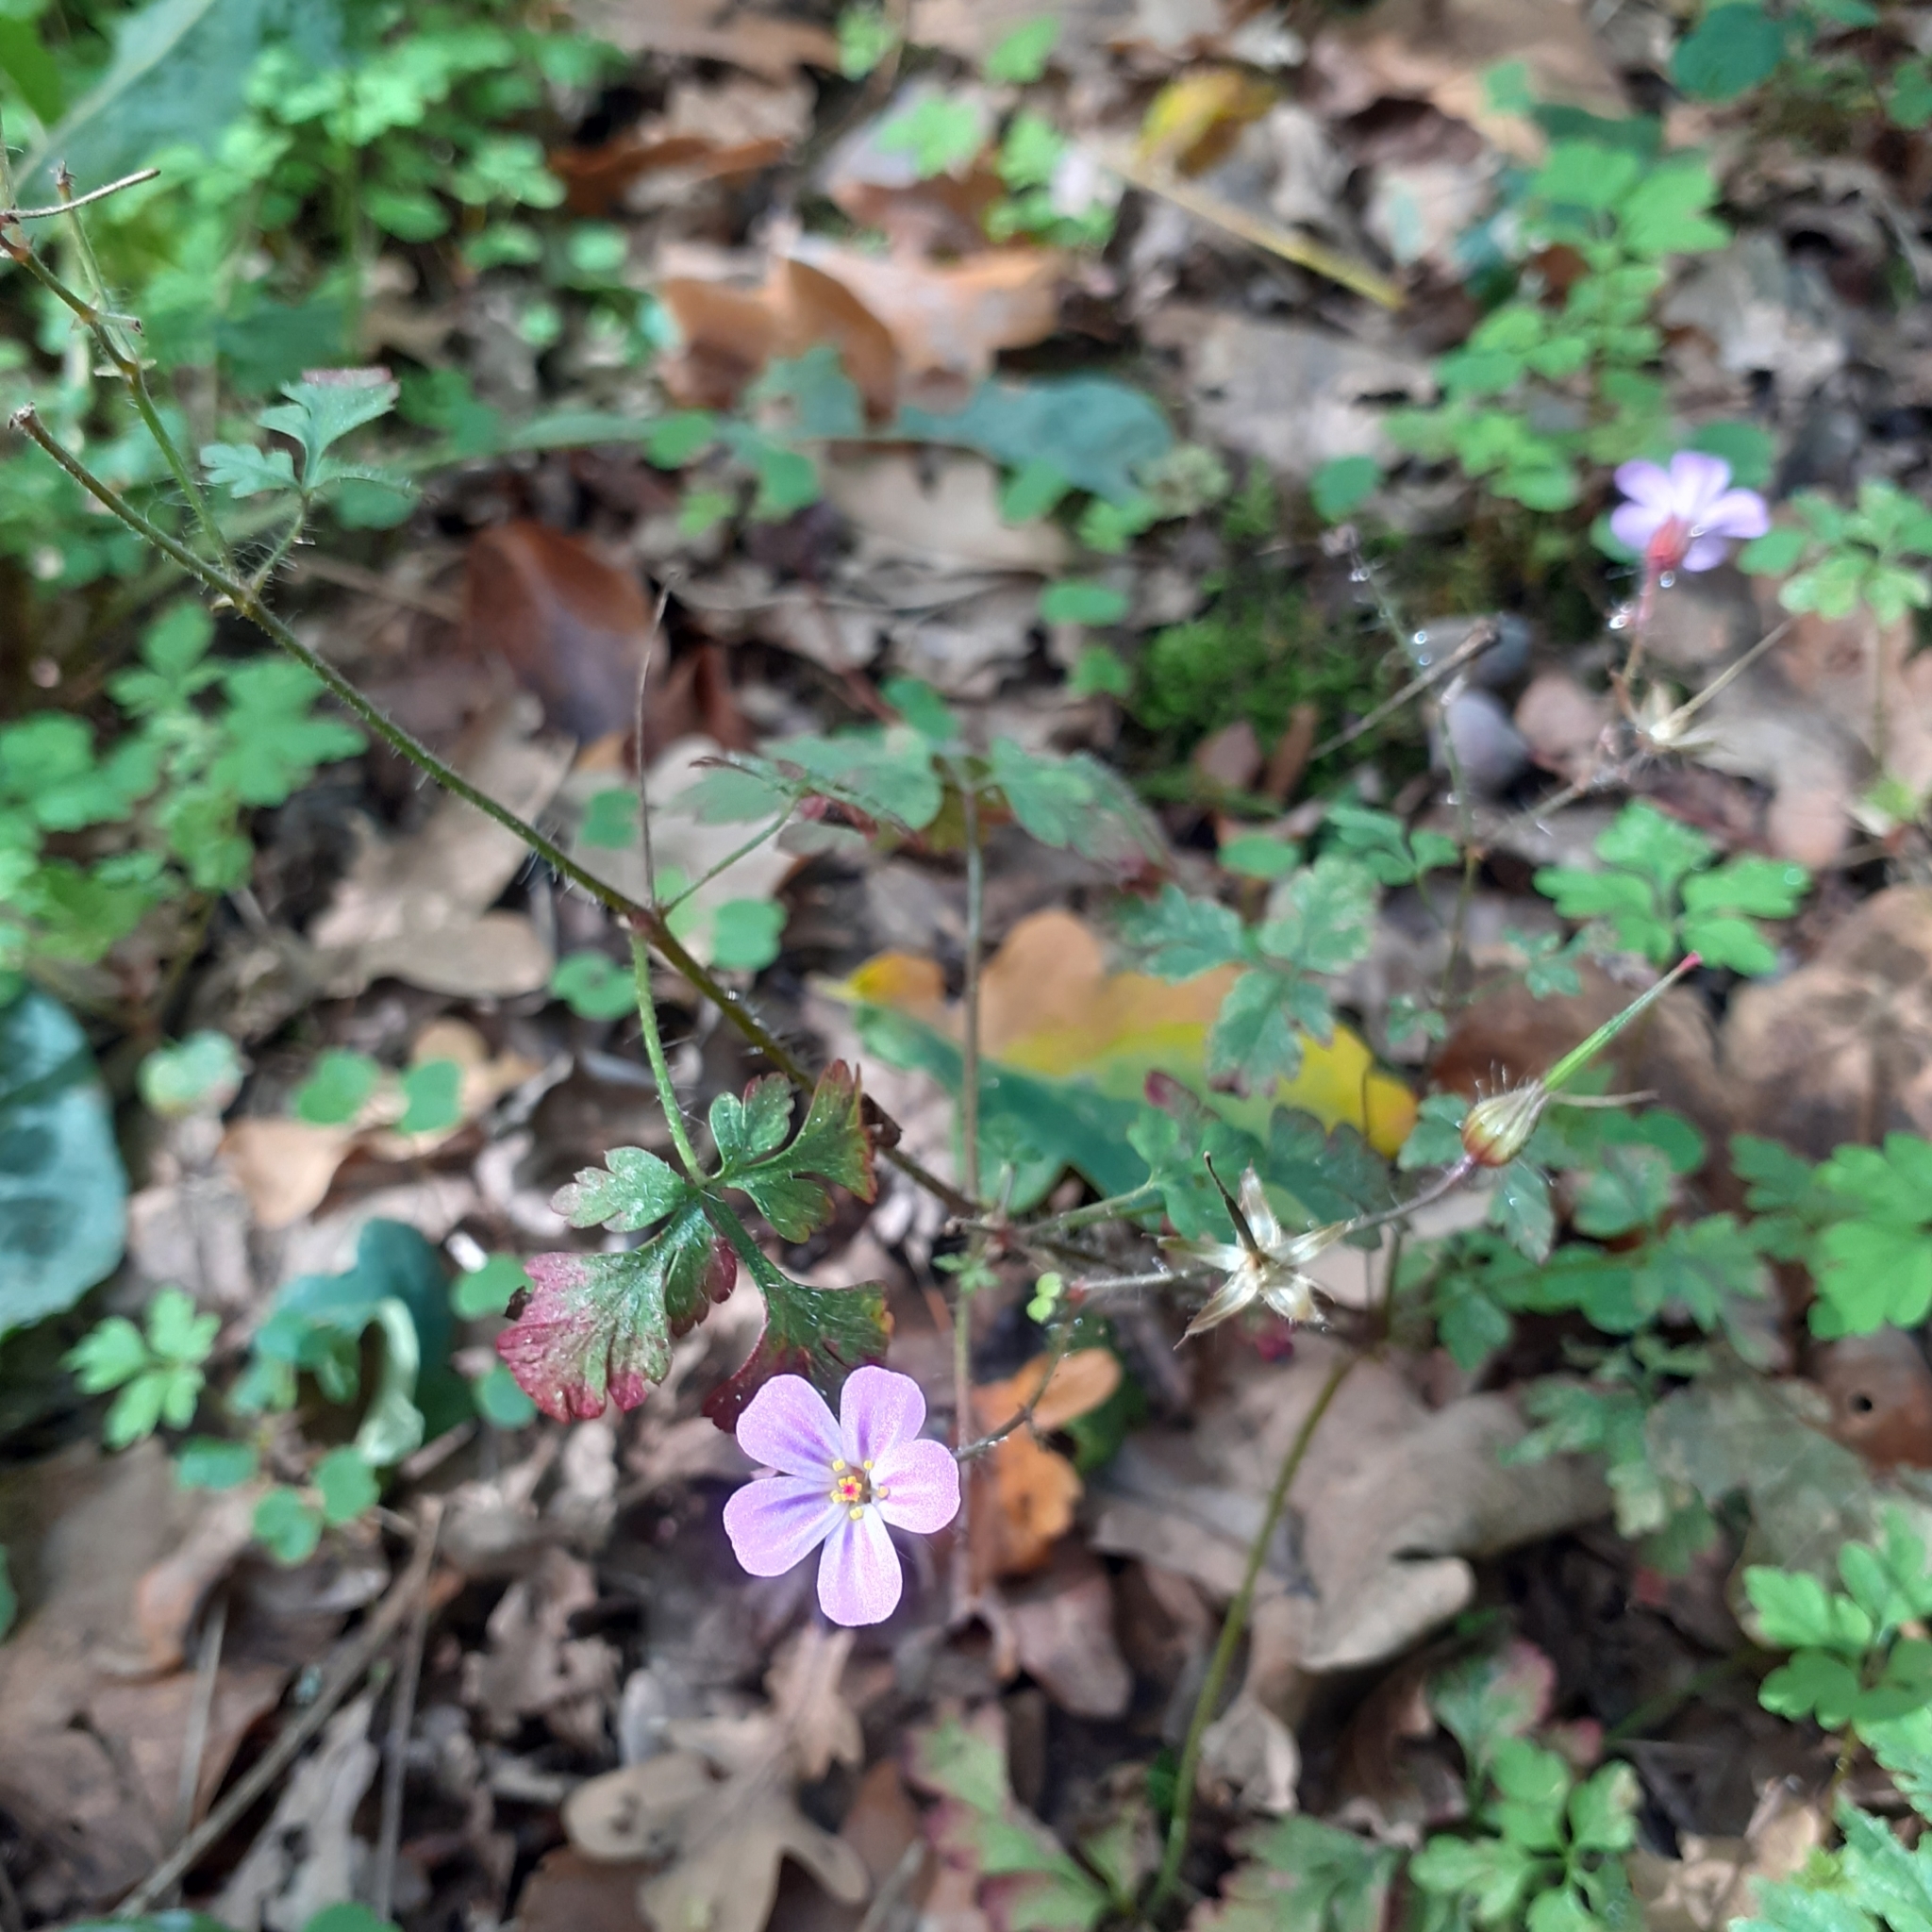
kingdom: Plantae
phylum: Tracheophyta
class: Magnoliopsida
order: Geraniales
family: Geraniaceae
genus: Geranium
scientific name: Geranium robertianum
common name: Herb-robert
